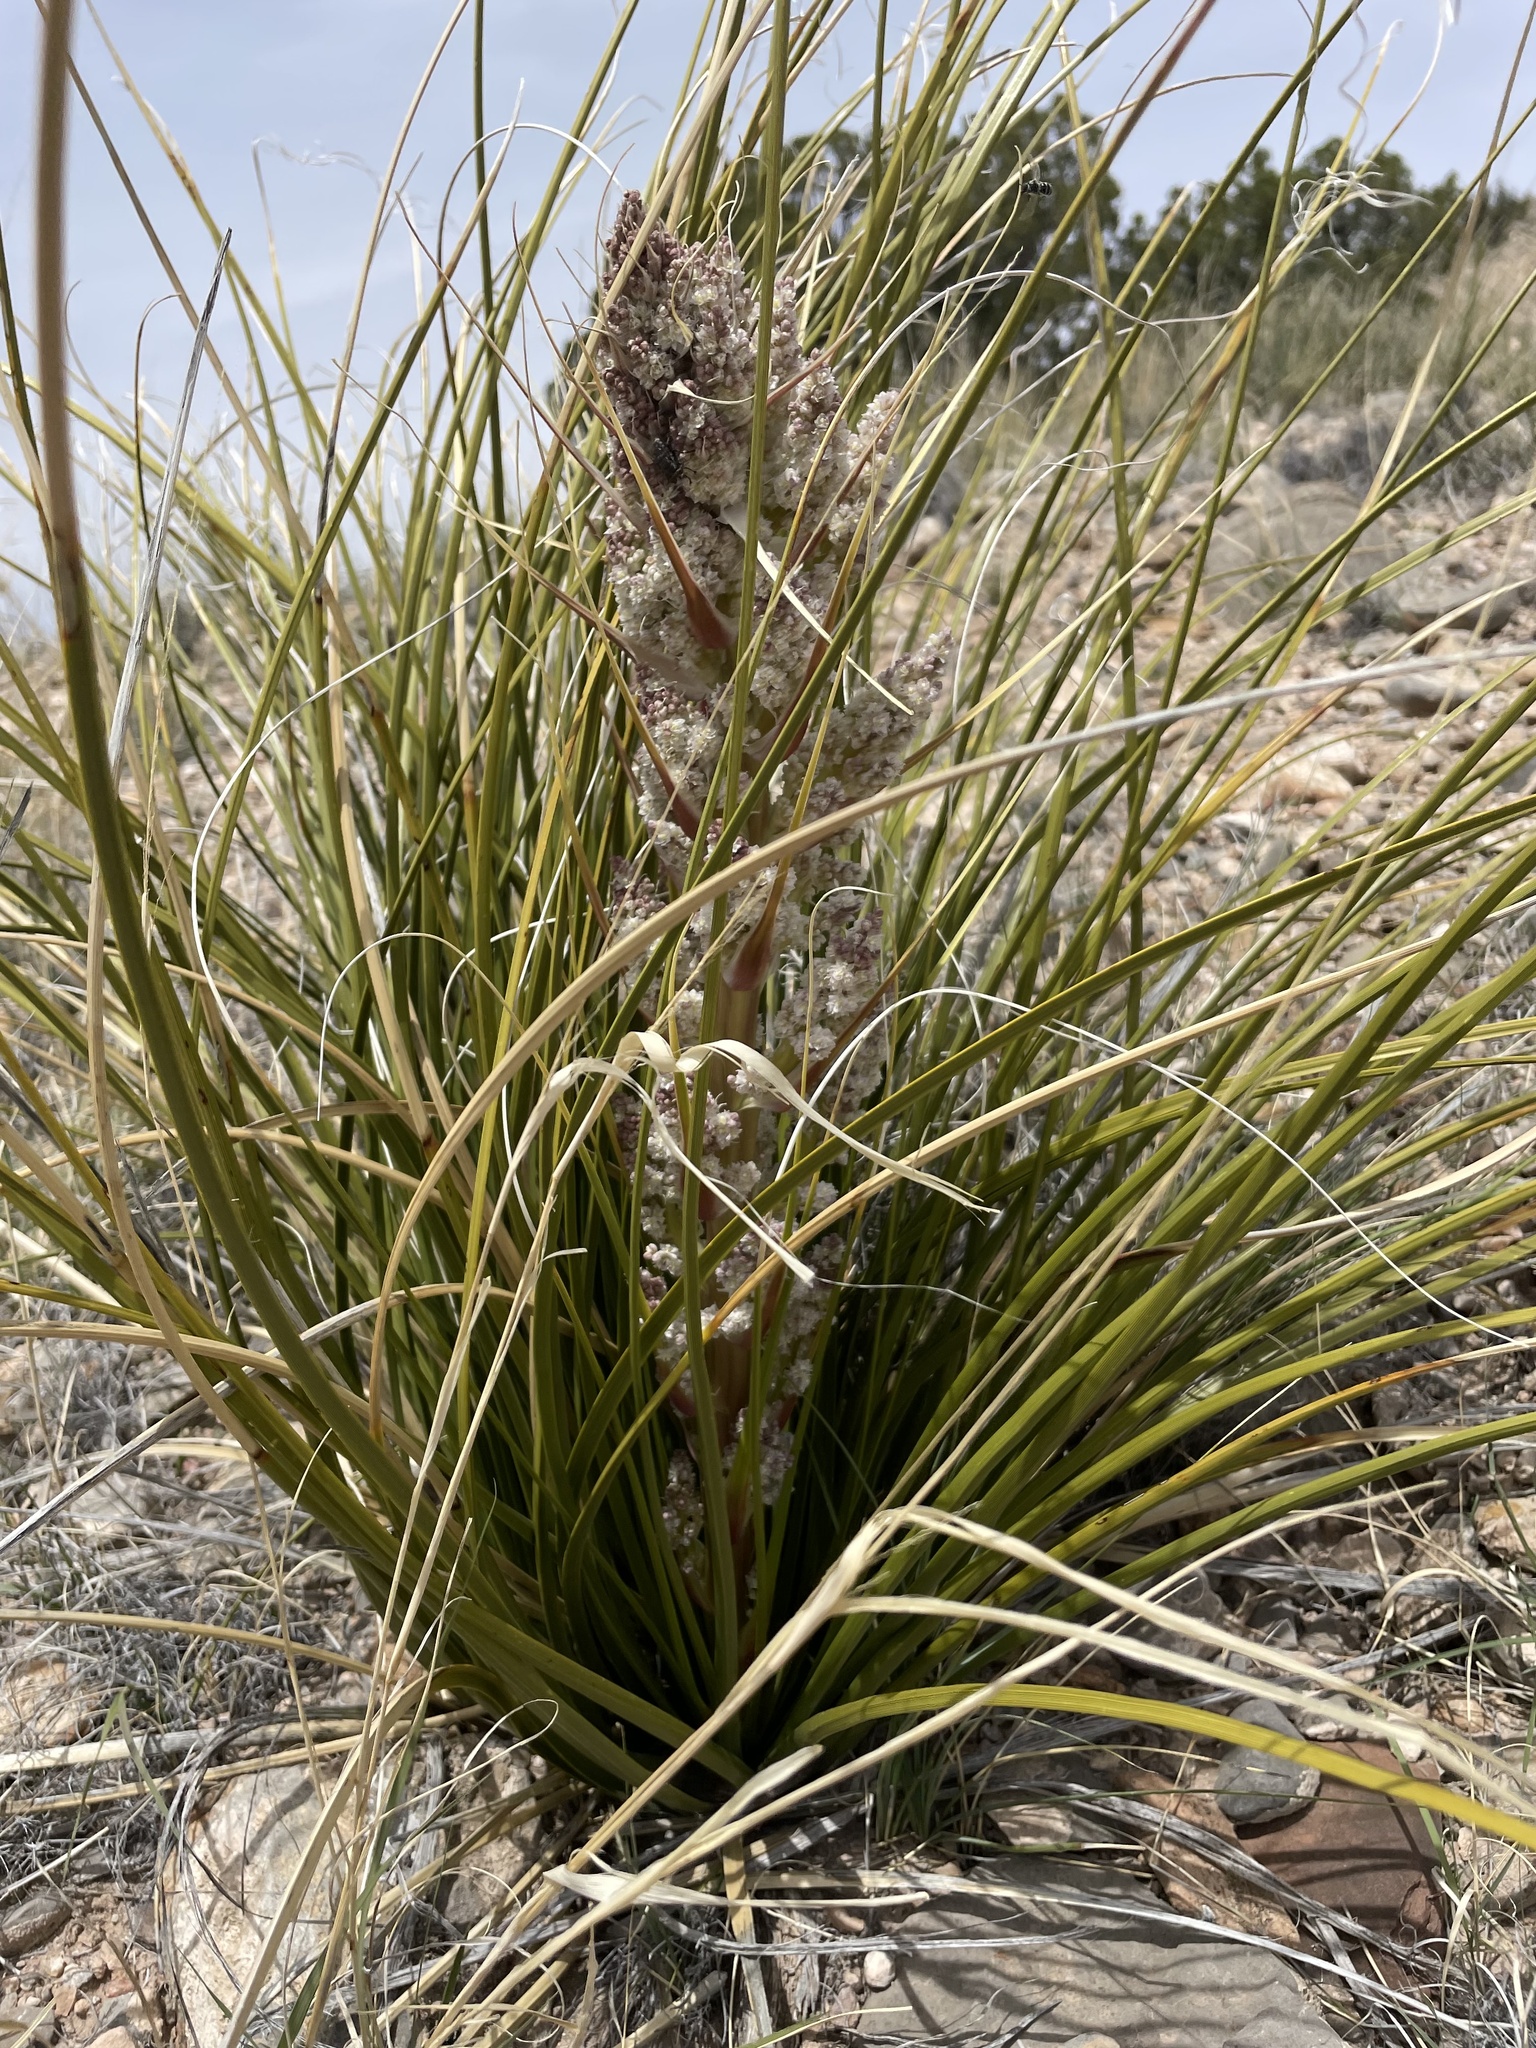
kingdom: Plantae
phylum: Tracheophyta
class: Liliopsida
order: Asparagales
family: Asparagaceae
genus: Nolina
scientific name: Nolina greenei
